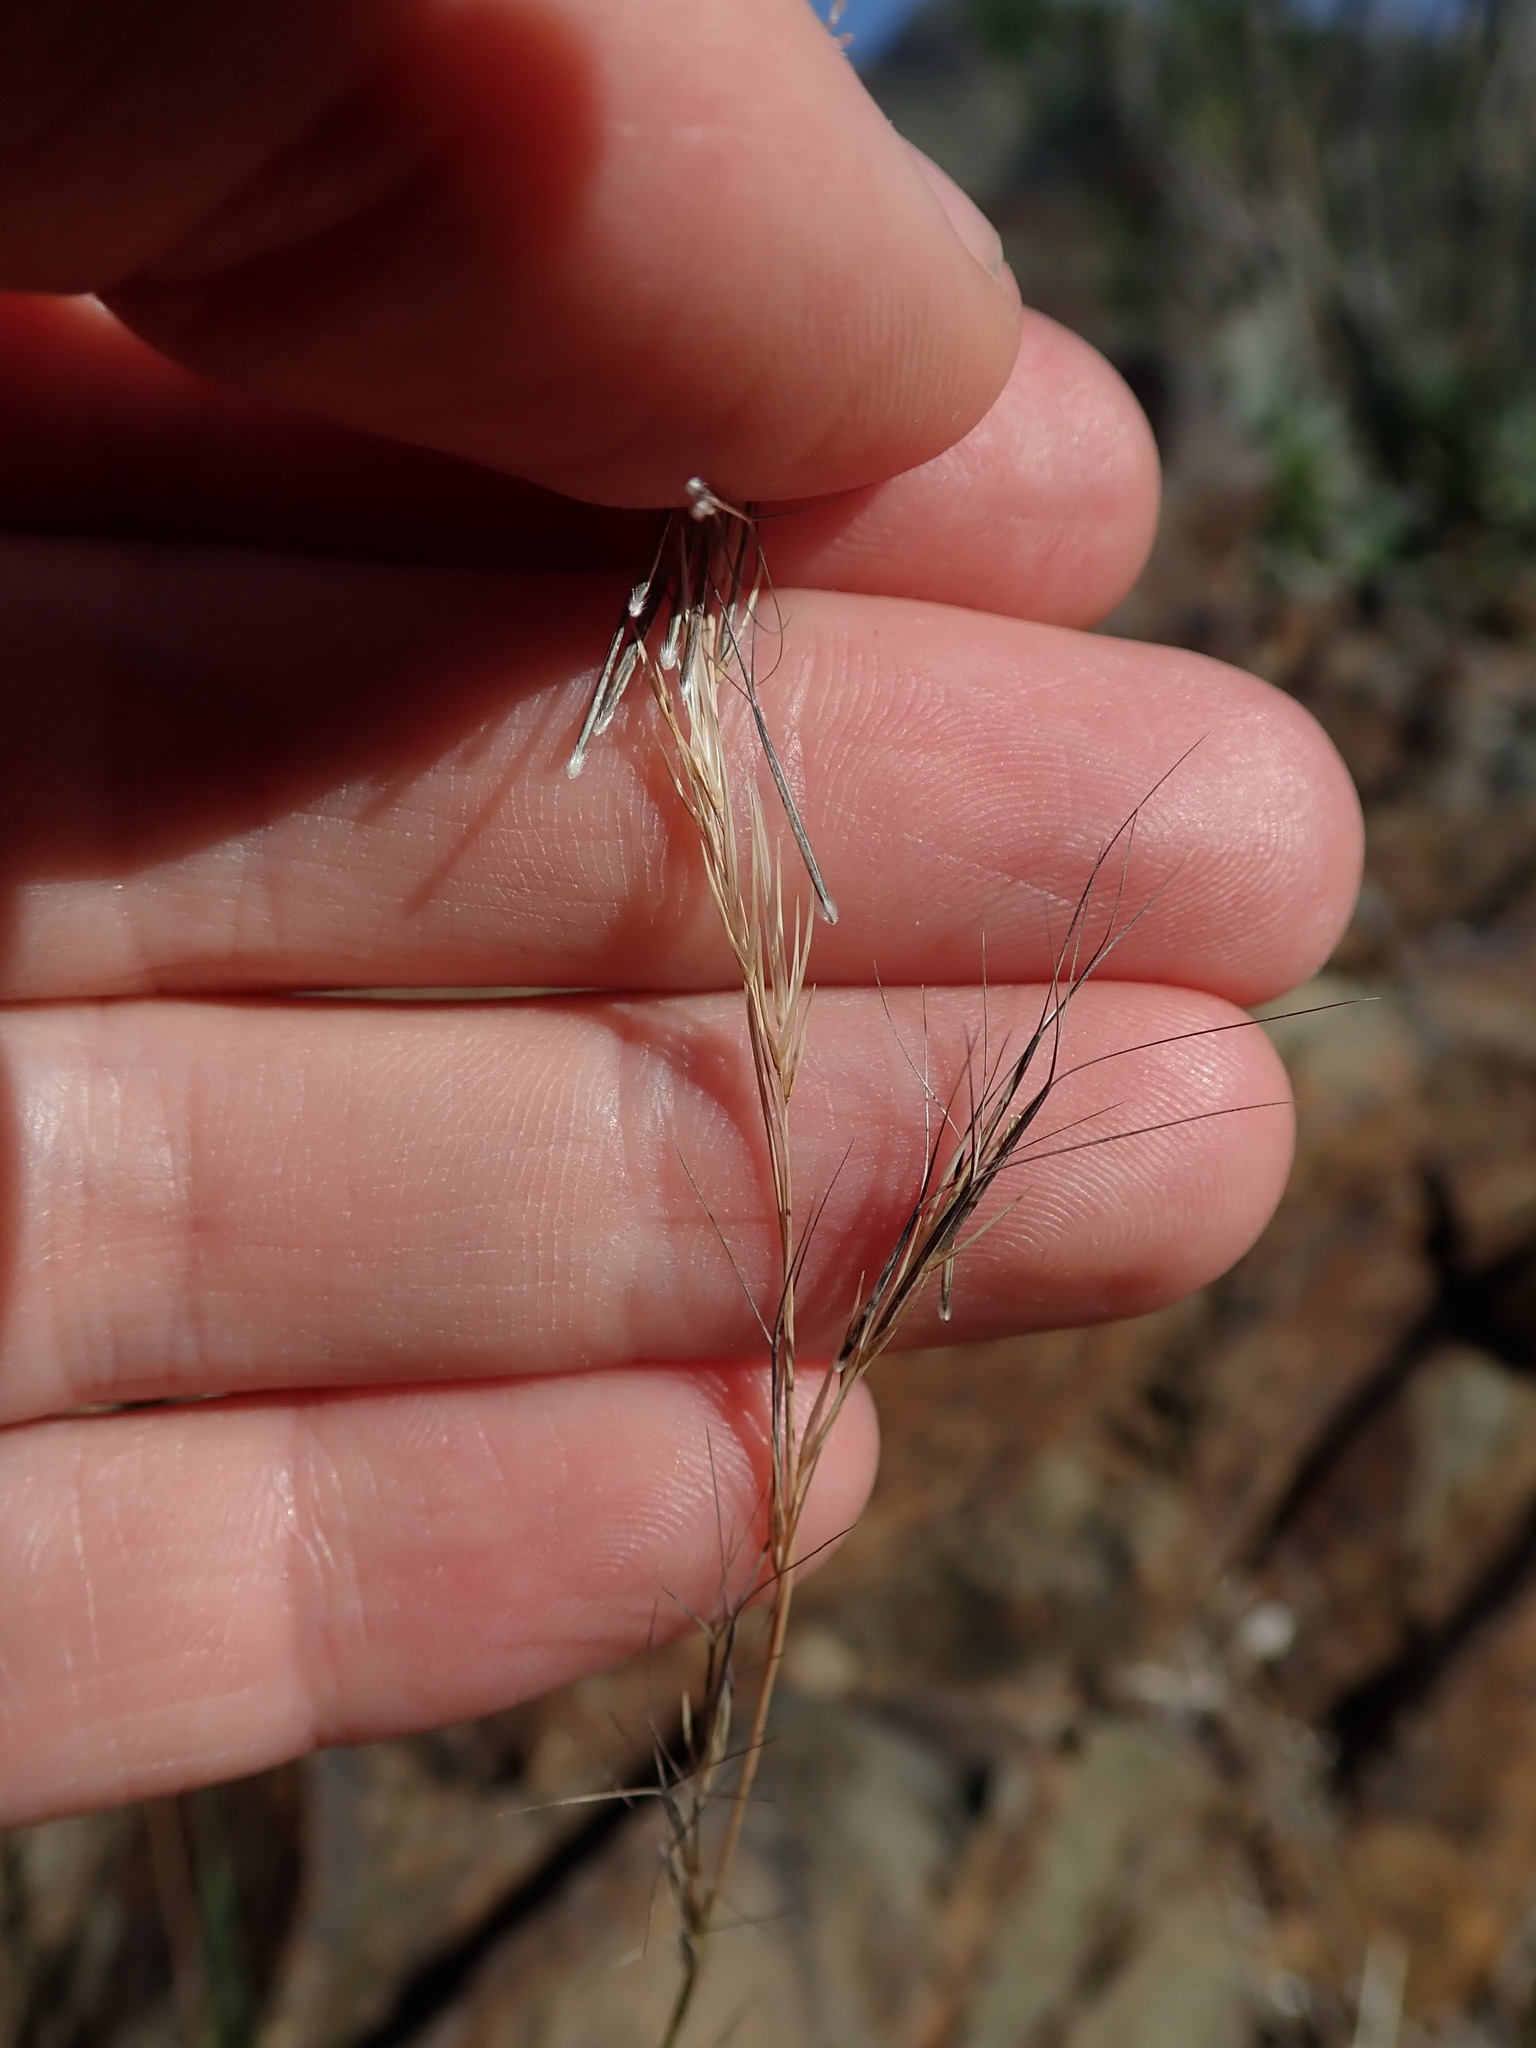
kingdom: Plantae
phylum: Tracheophyta
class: Liliopsida
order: Poales
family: Poaceae
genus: Aristida
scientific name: Aristida adscensionis
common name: Sixweeks threeawn
